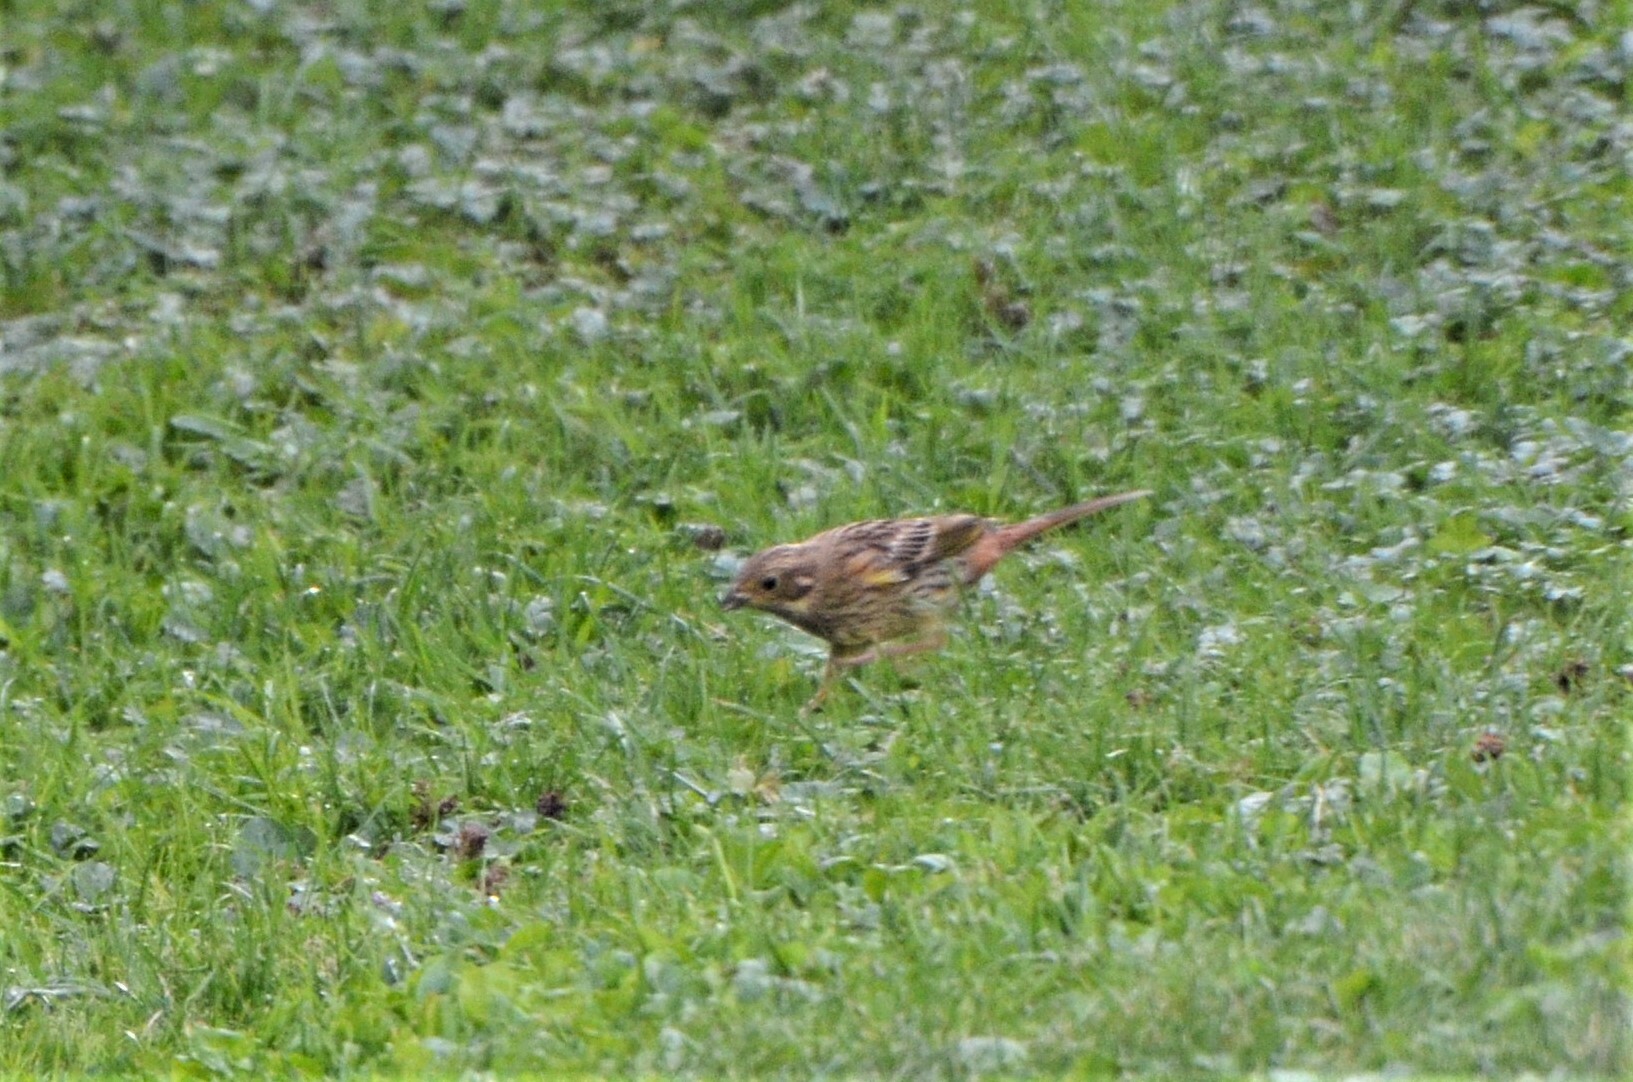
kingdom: Animalia
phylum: Chordata
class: Aves
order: Passeriformes
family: Emberizidae
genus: Emberiza
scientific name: Emberiza citrinella
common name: Yellowhammer
